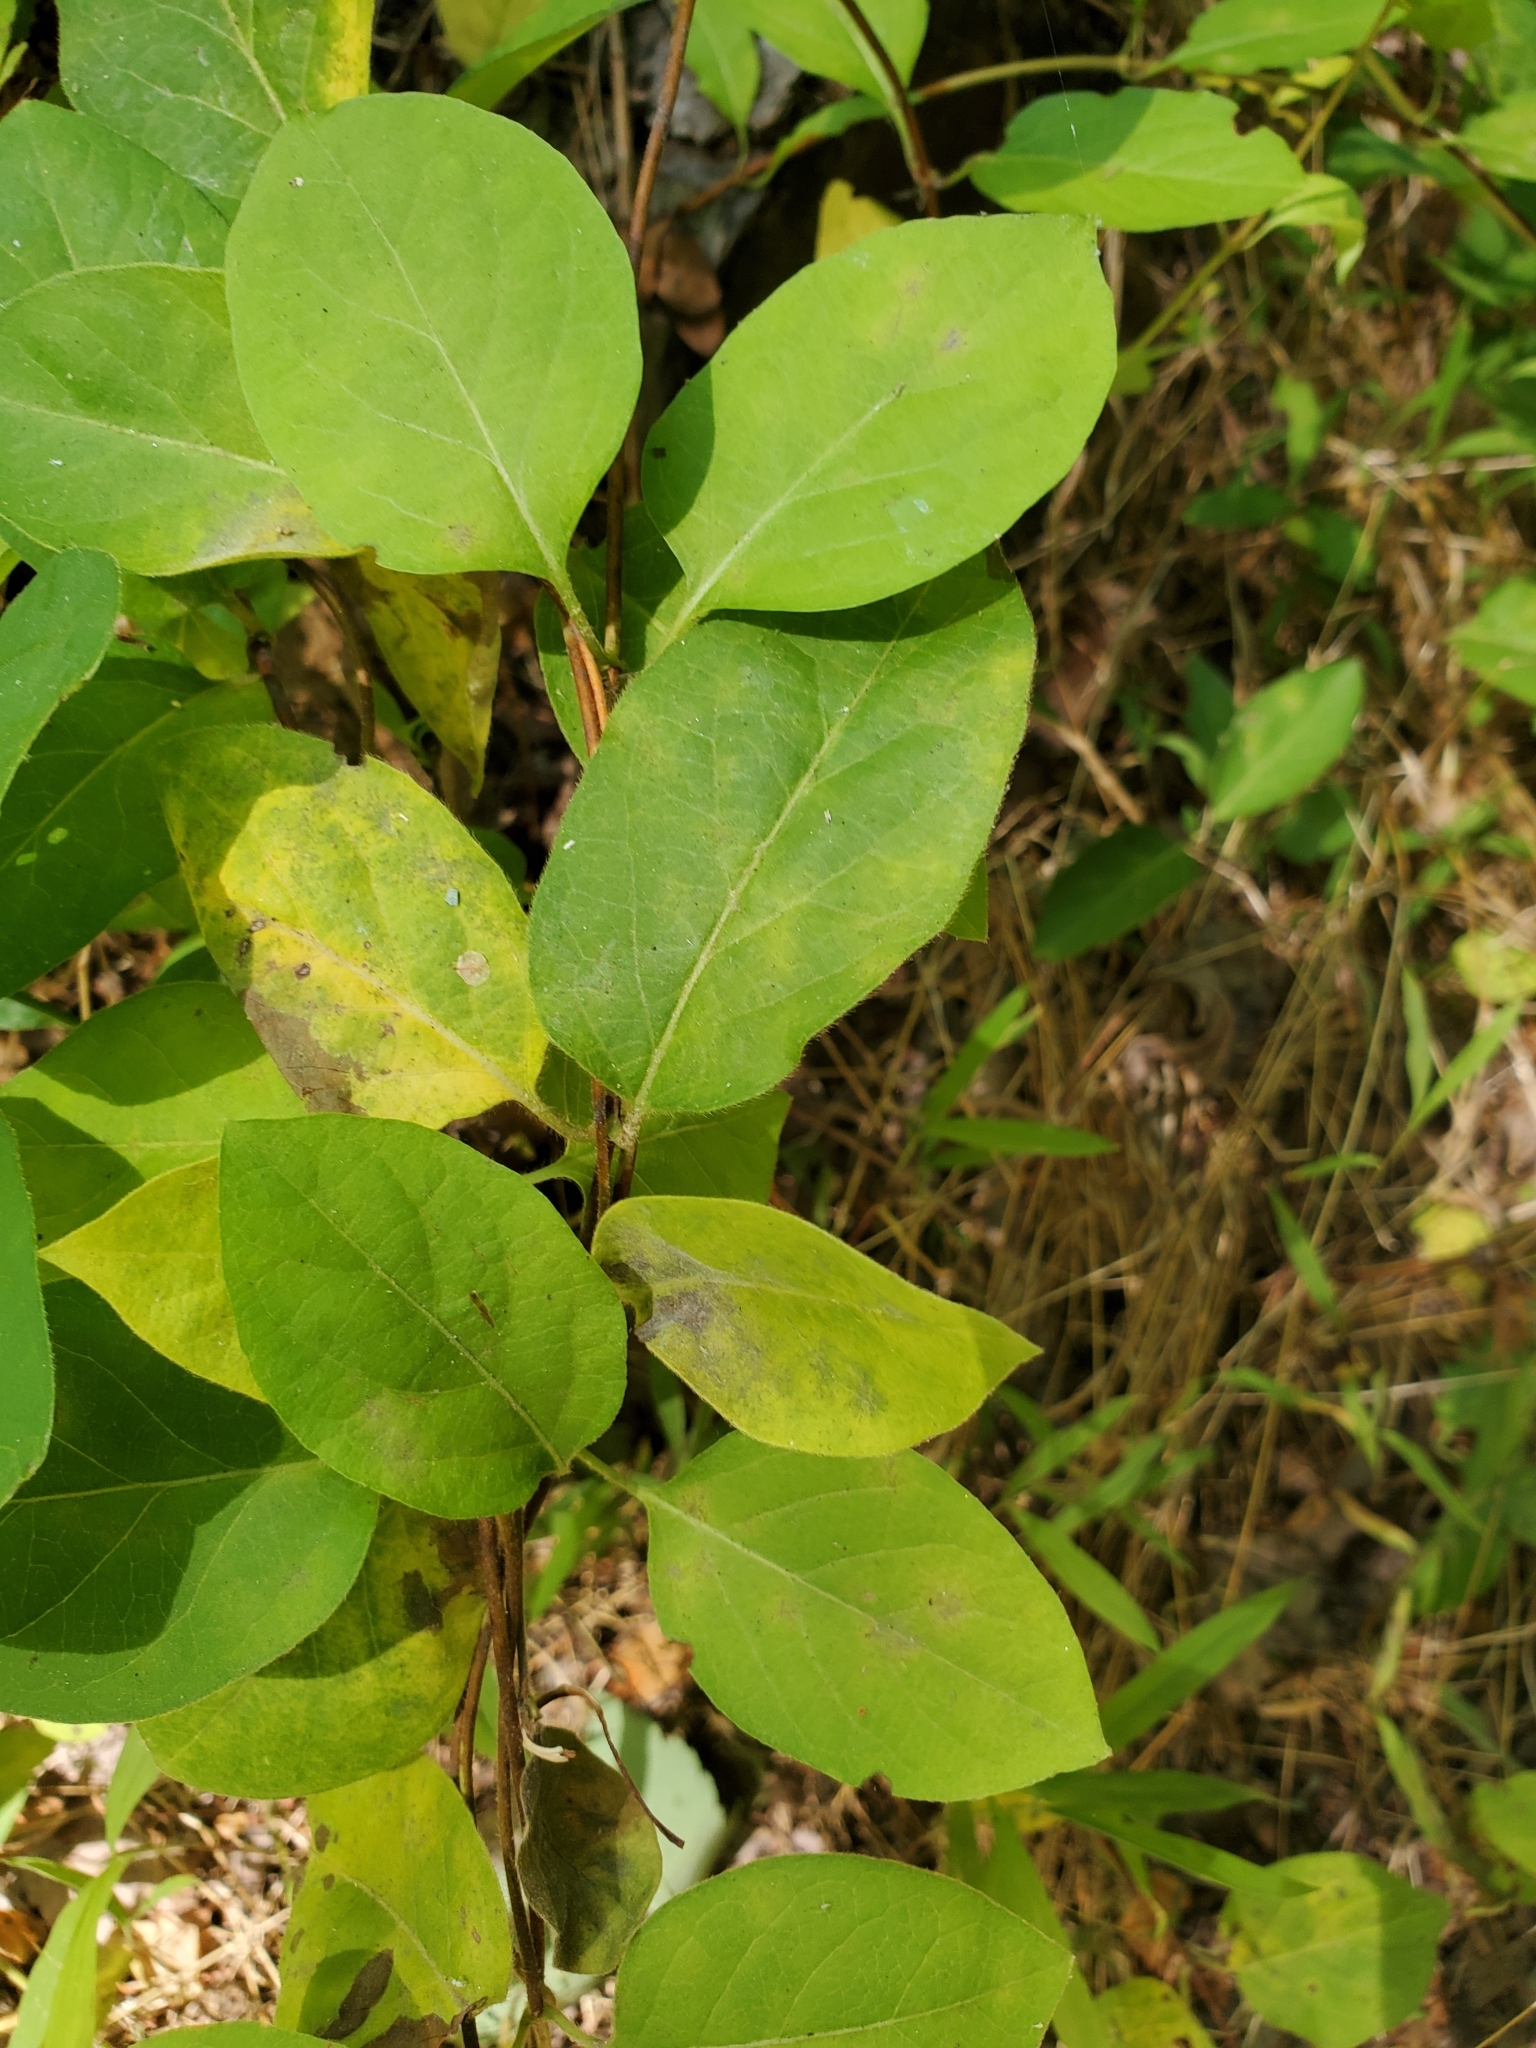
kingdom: Plantae
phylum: Tracheophyta
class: Magnoliopsida
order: Dipsacales
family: Caprifoliaceae
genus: Lonicera
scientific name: Lonicera japonica
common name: Japanese honeysuckle
